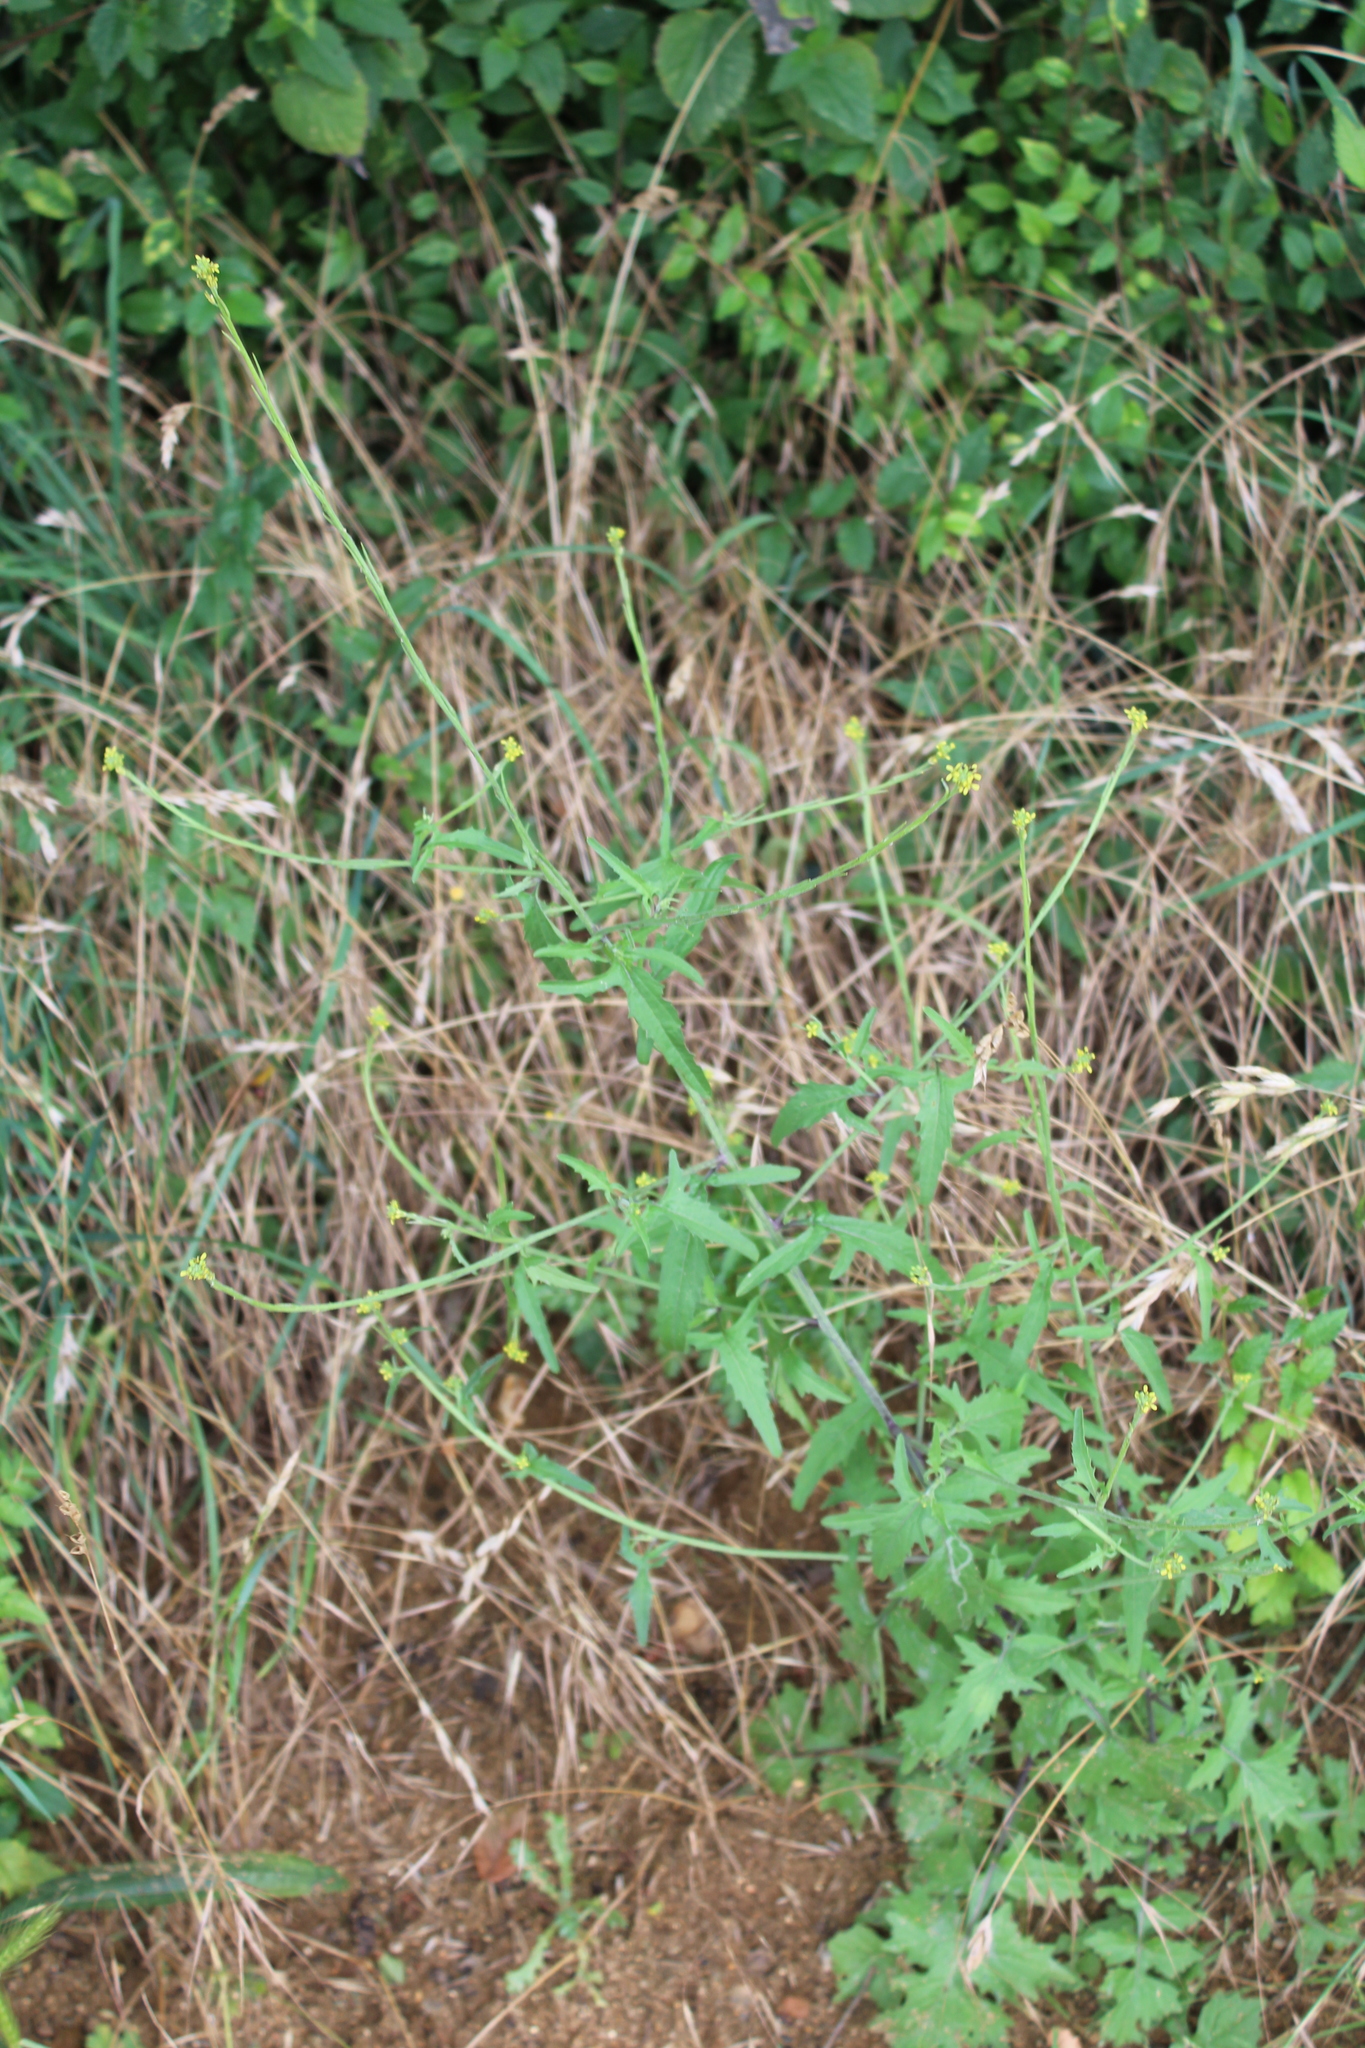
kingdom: Plantae
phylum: Tracheophyta
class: Magnoliopsida
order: Brassicales
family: Brassicaceae
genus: Sisymbrium
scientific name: Sisymbrium officinale
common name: Hedge mustard
